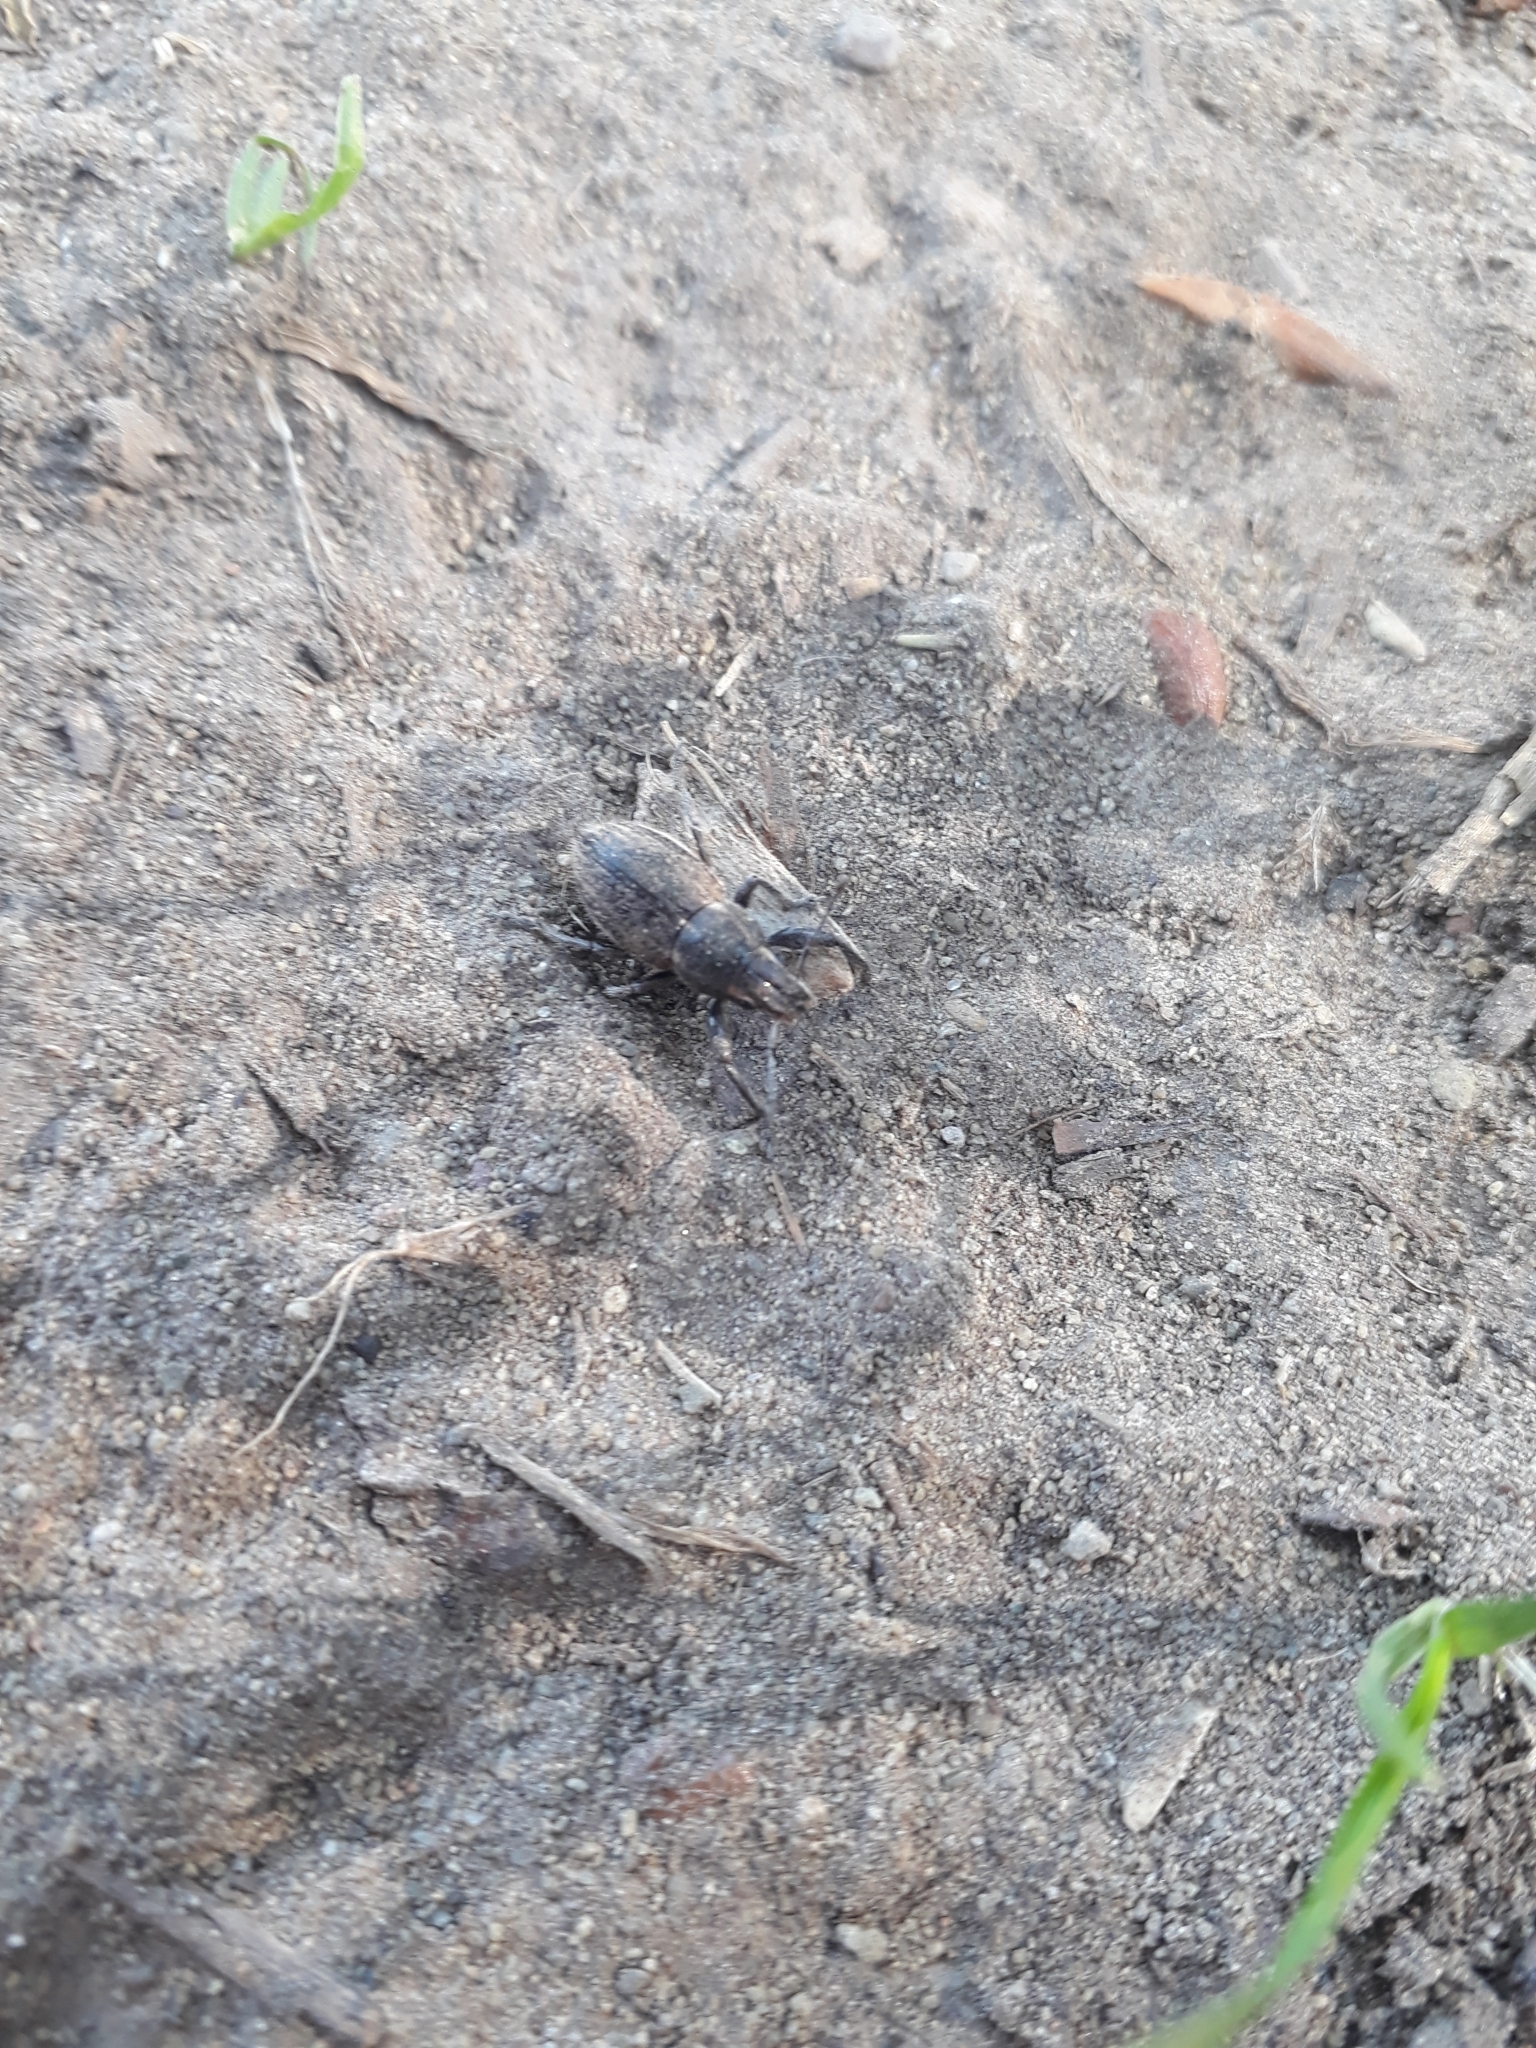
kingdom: Animalia
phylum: Arthropoda
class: Insecta
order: Coleoptera
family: Curculionidae
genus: Naupactus
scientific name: Naupactus leucoloma
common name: Whitefringed beetle
